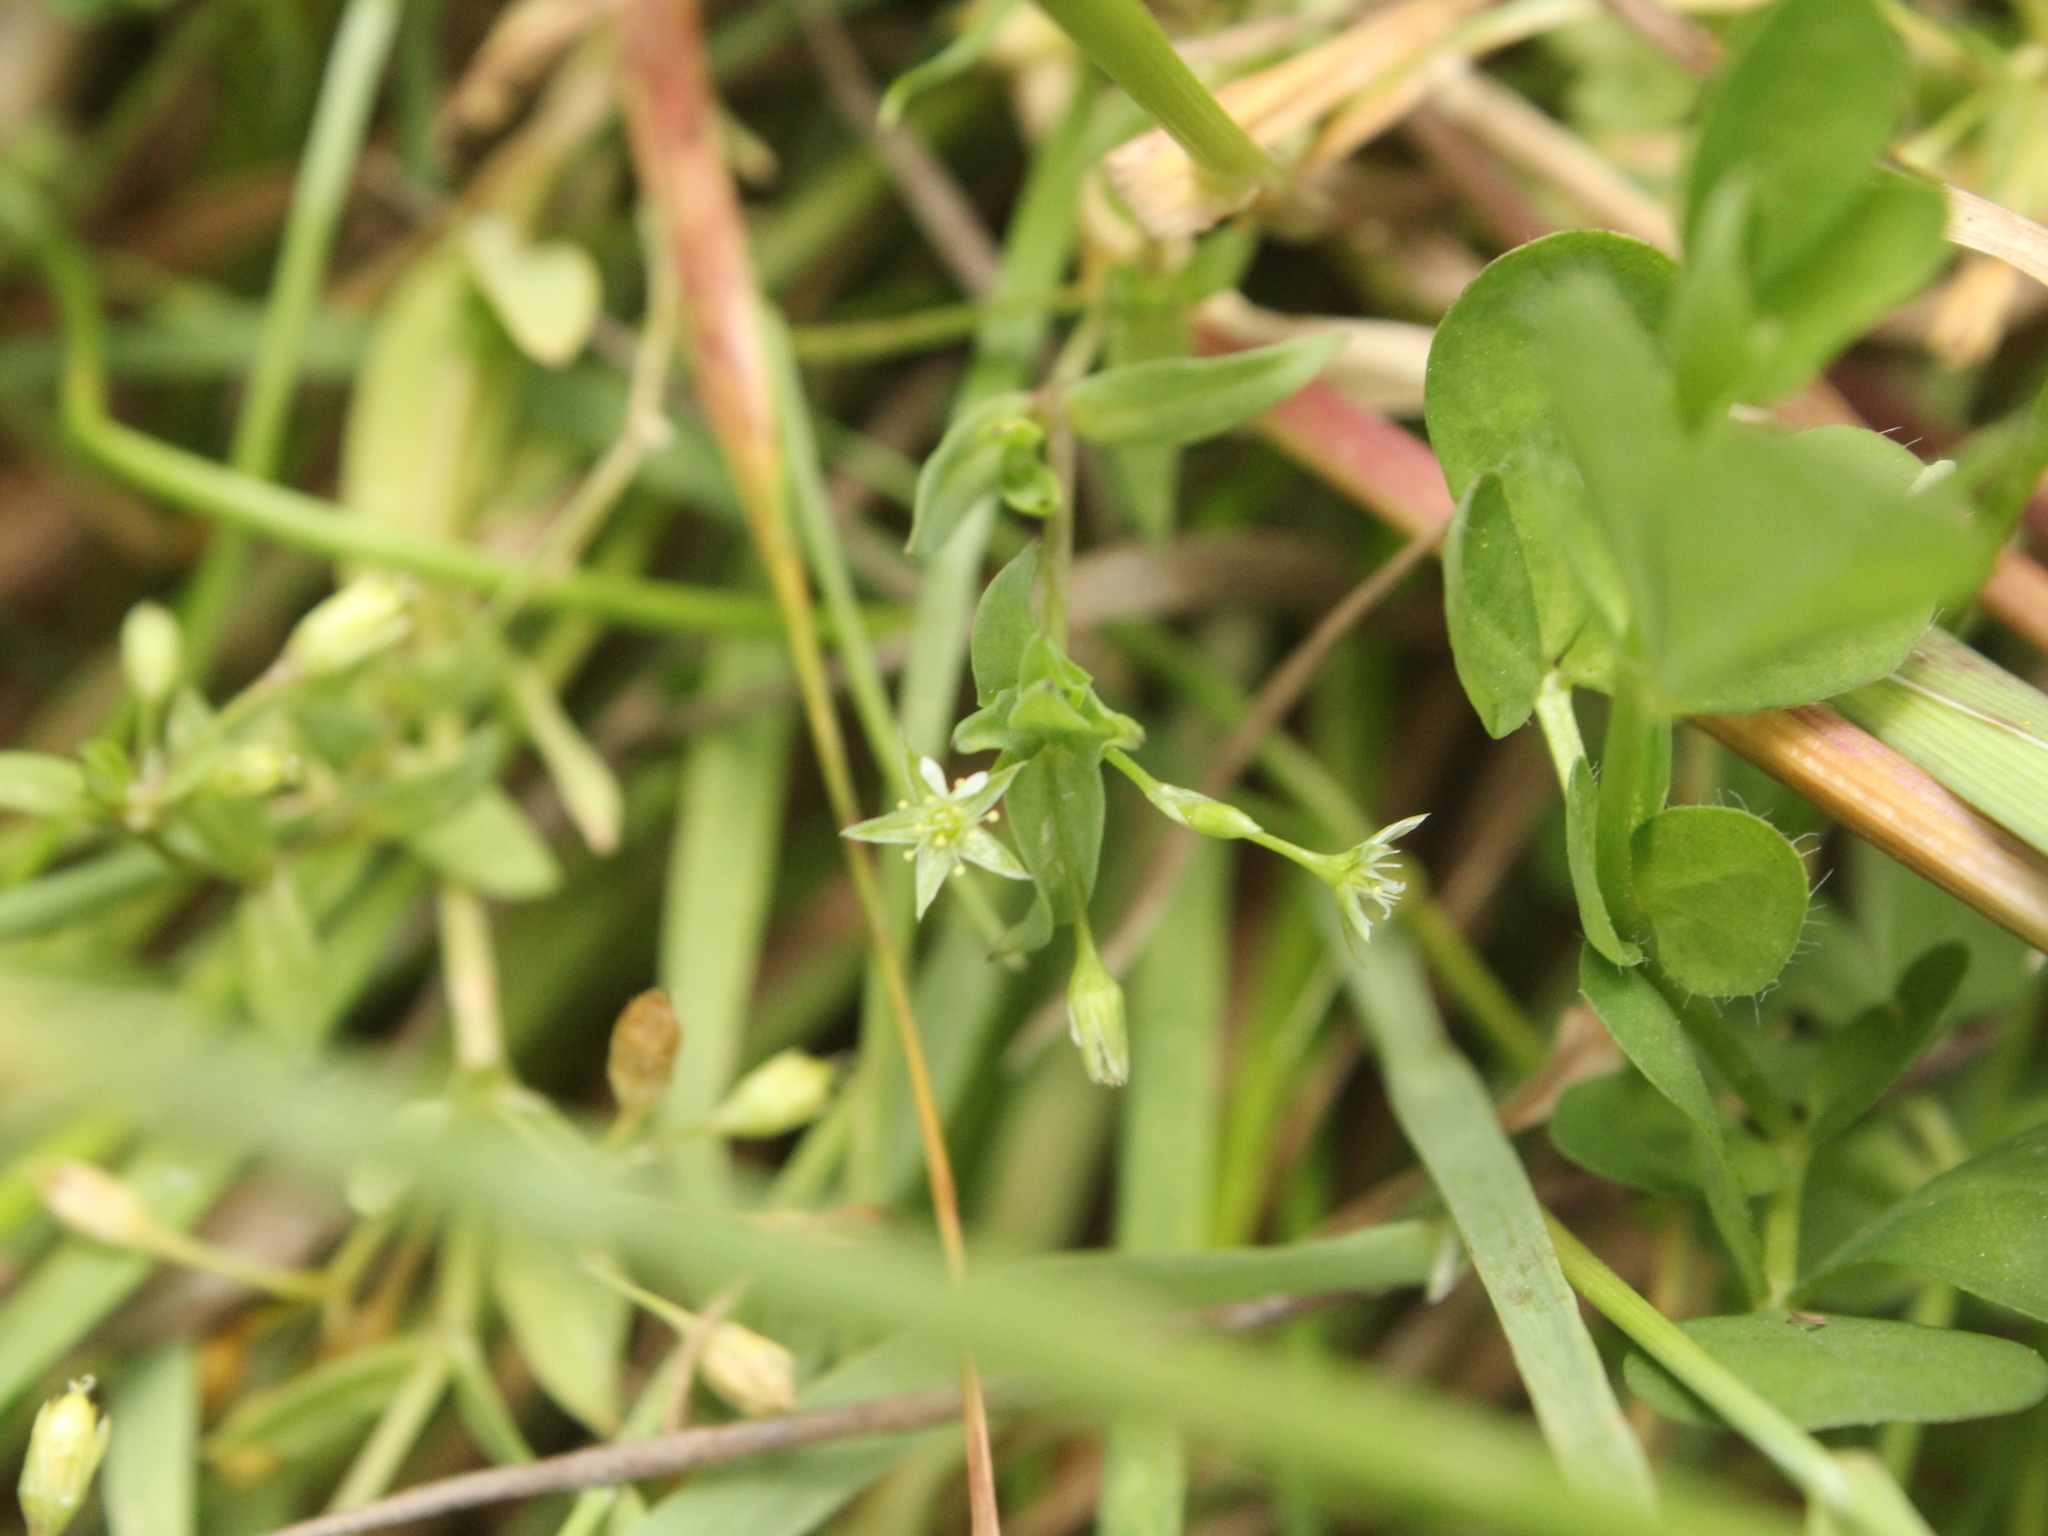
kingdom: Plantae
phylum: Tracheophyta
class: Magnoliopsida
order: Caryophyllales
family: Caryophyllaceae
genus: Stellaria
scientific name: Stellaria alsine
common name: Bog stitchwort
